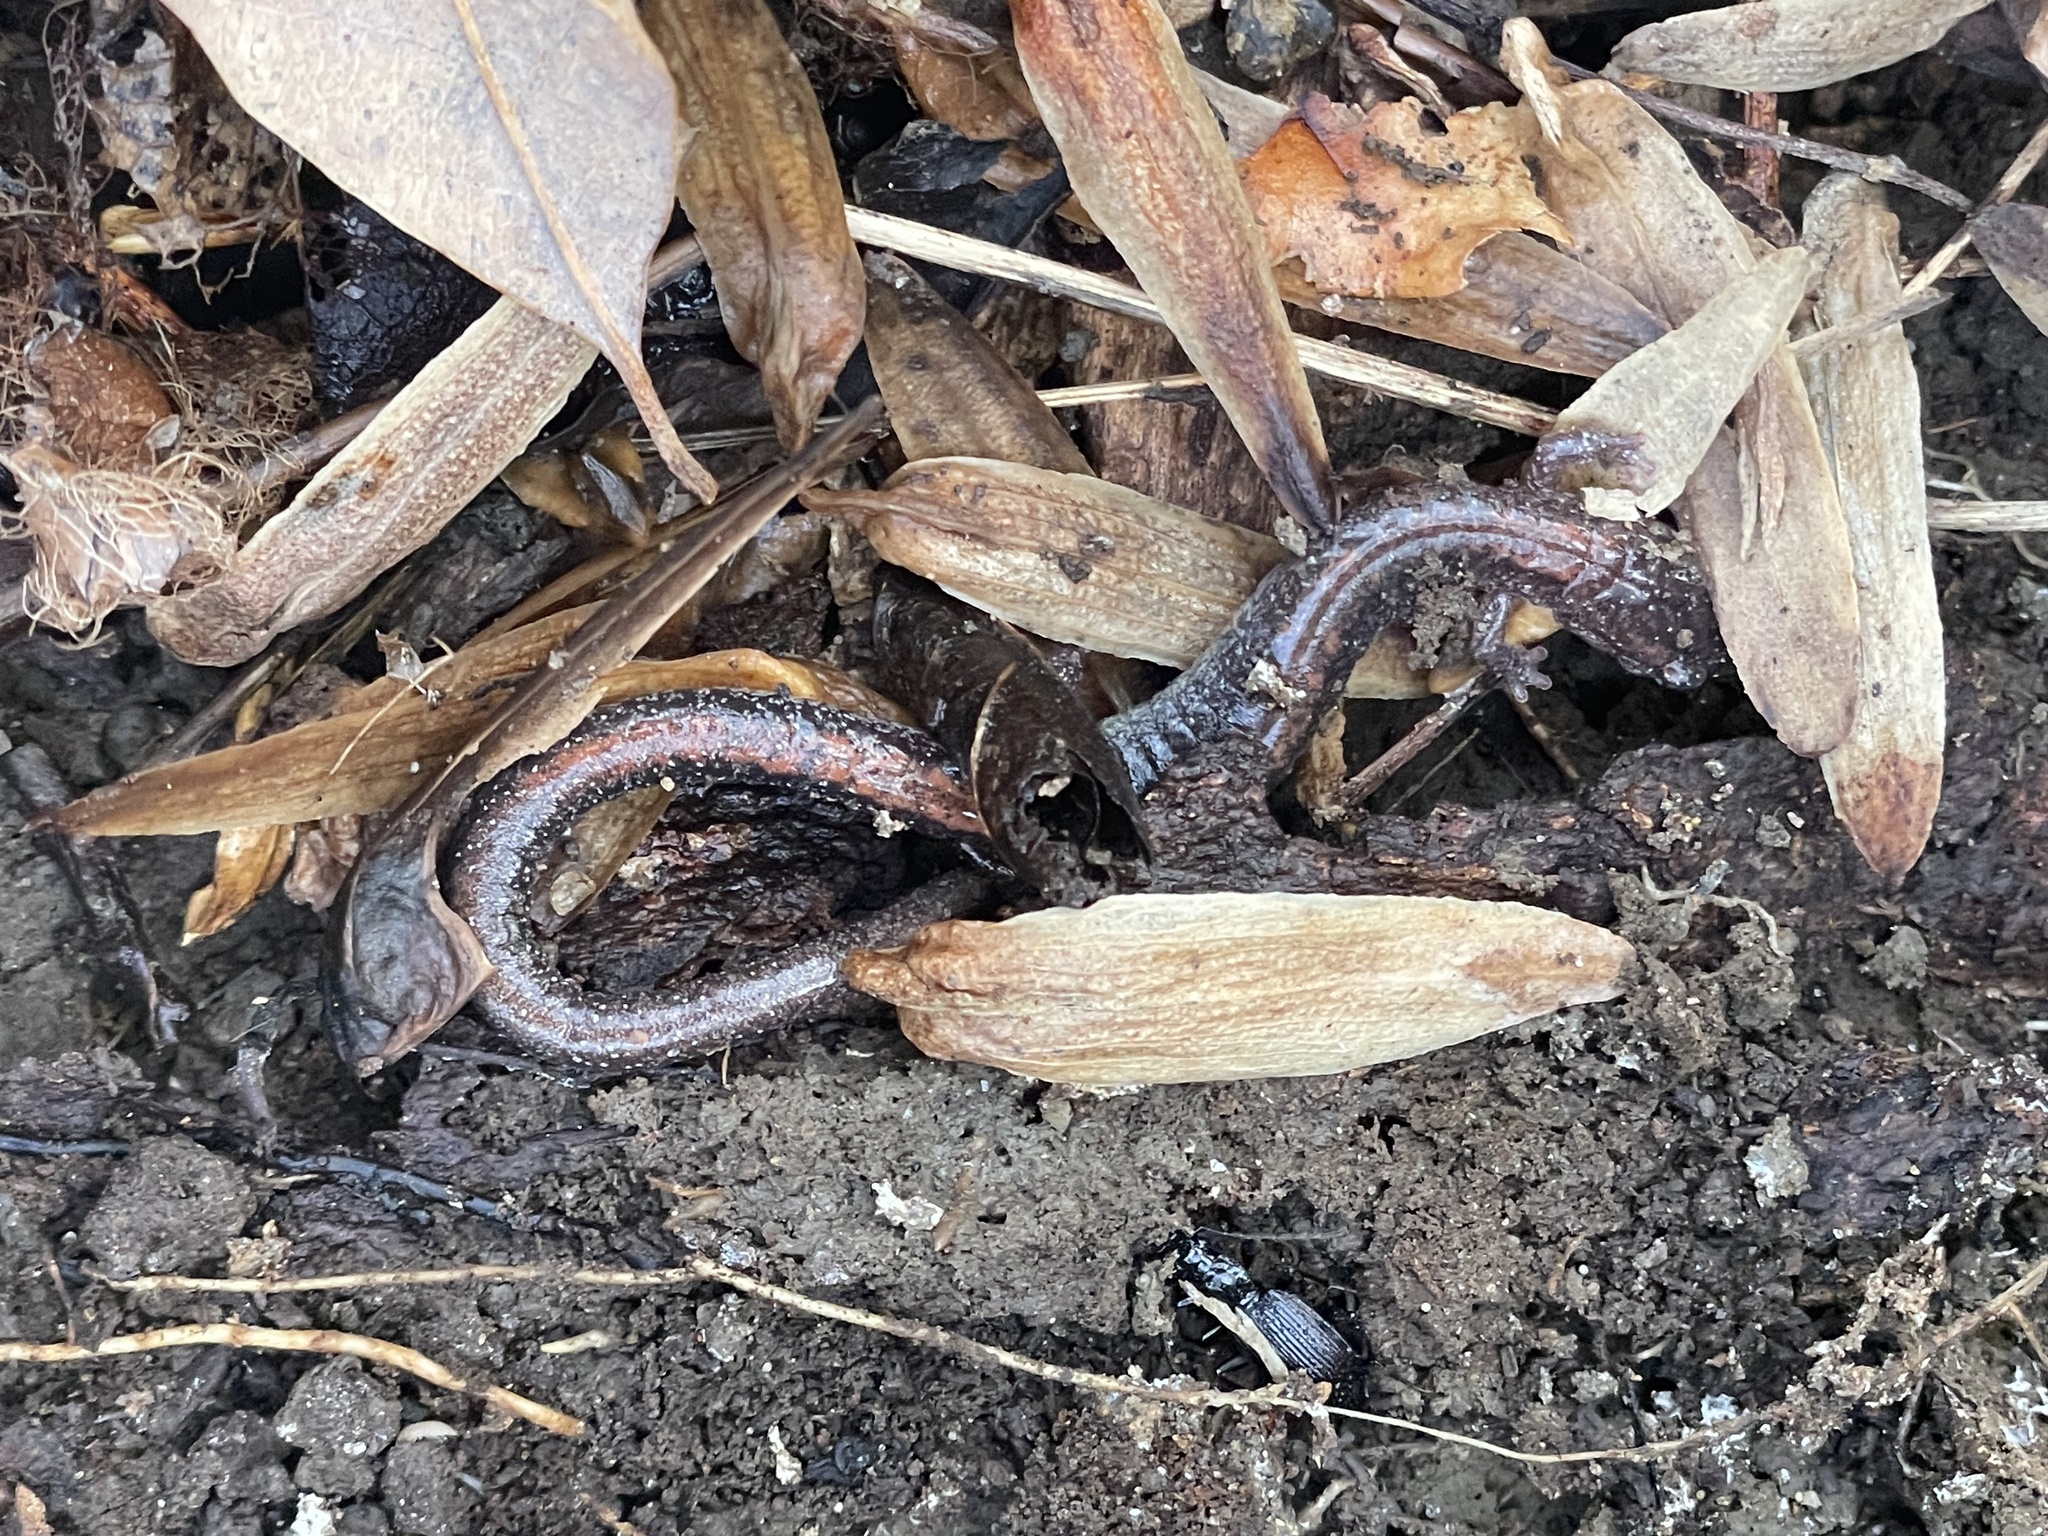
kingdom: Animalia
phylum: Chordata
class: Amphibia
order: Caudata
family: Plethodontidae
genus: Plethodon
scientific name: Plethodon cinereus
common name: Redback salamander
